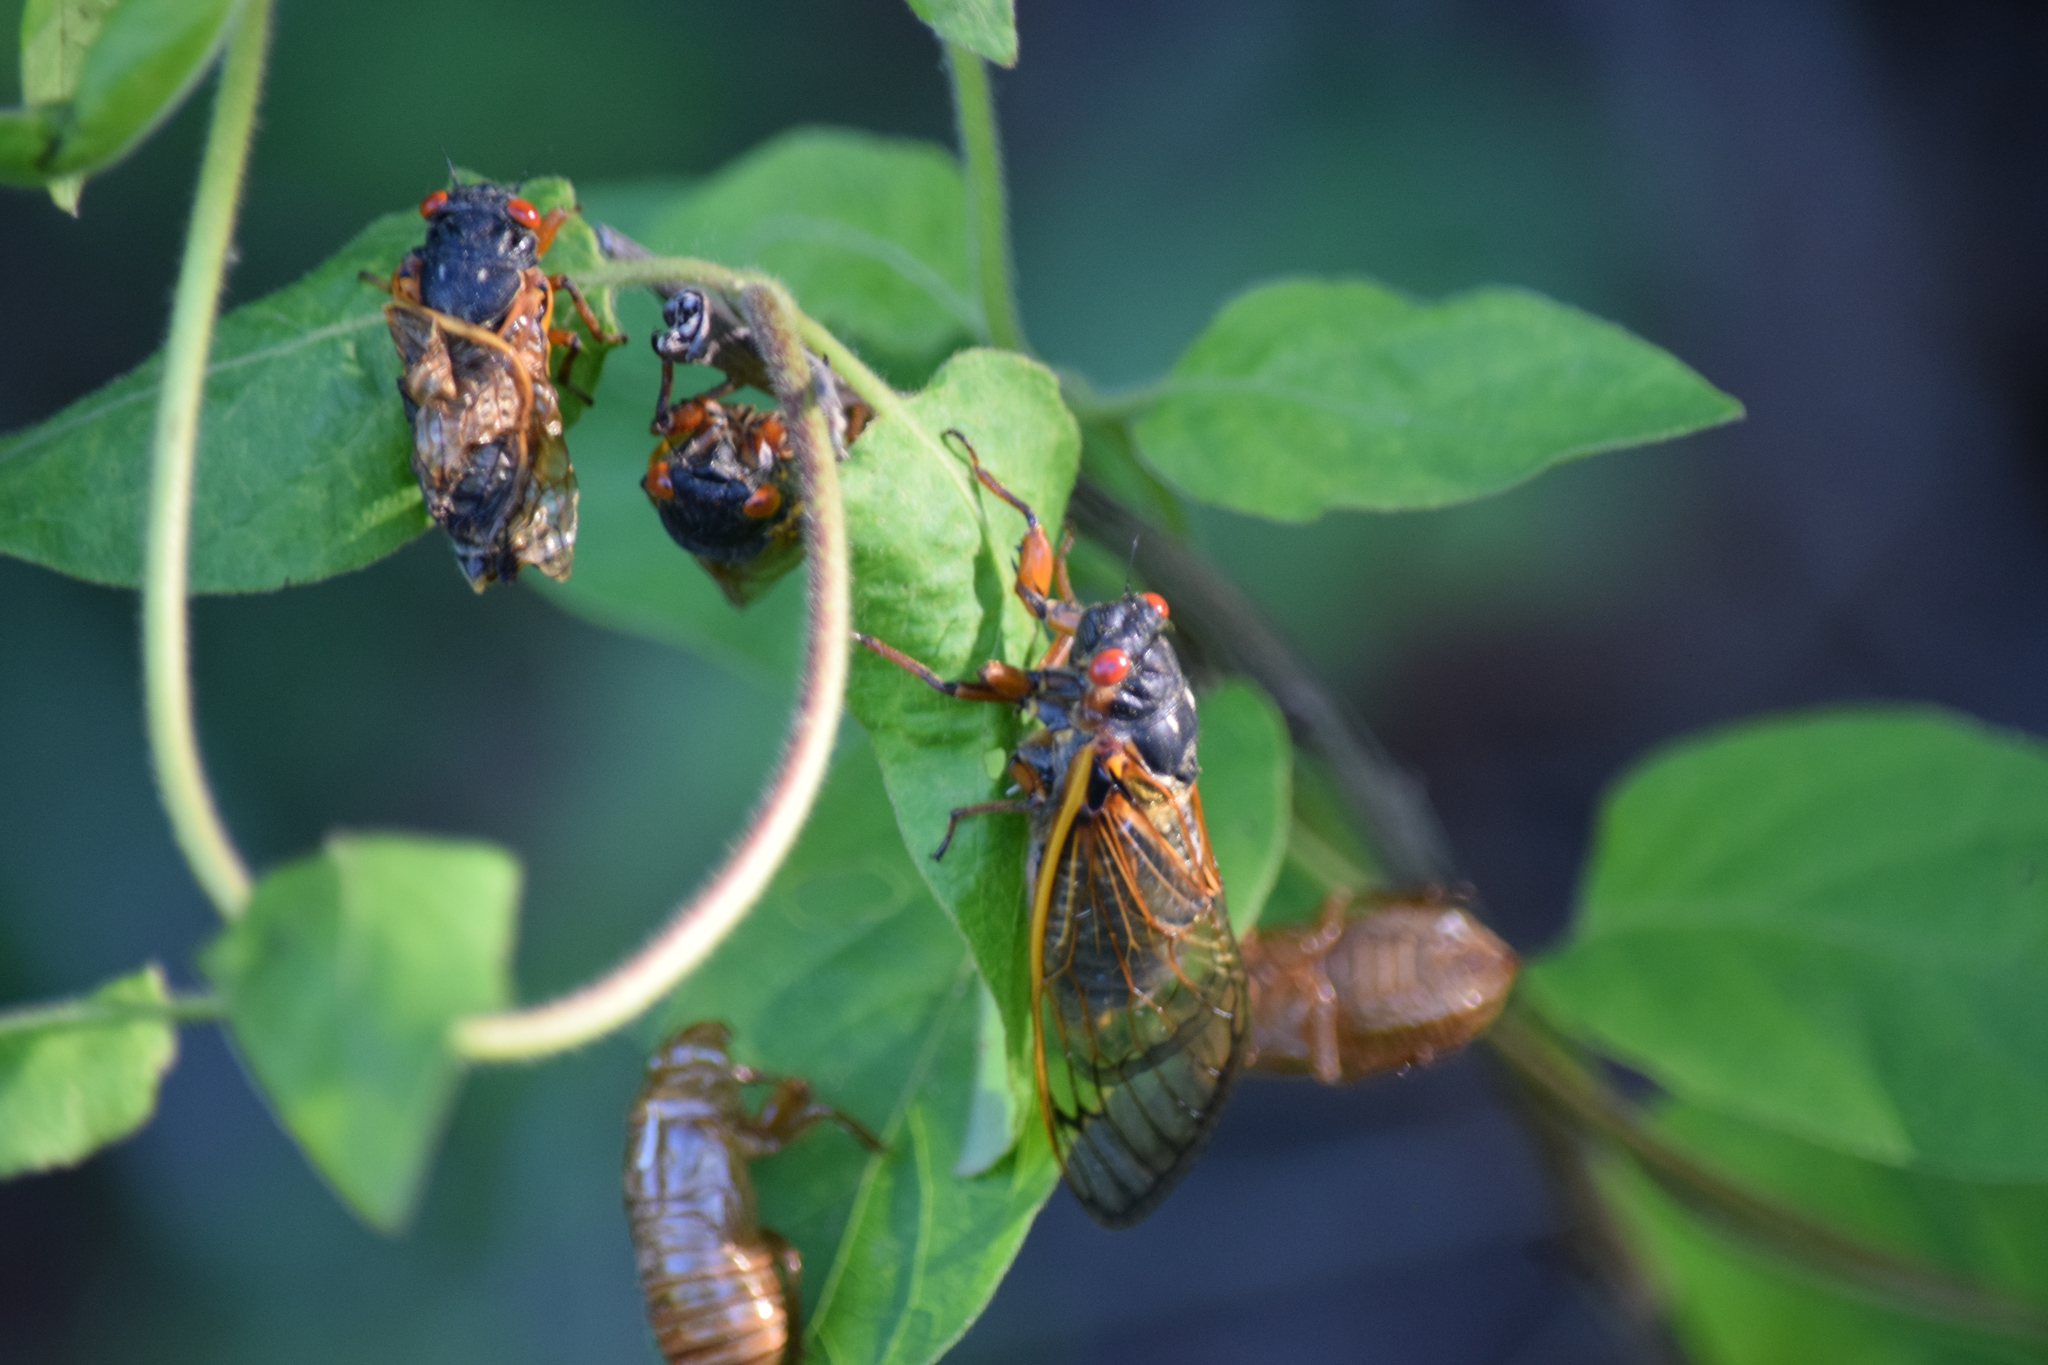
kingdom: Animalia
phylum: Arthropoda
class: Insecta
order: Hemiptera
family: Cicadidae
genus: Magicicada
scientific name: Magicicada septendecim
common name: Periodical cicada
